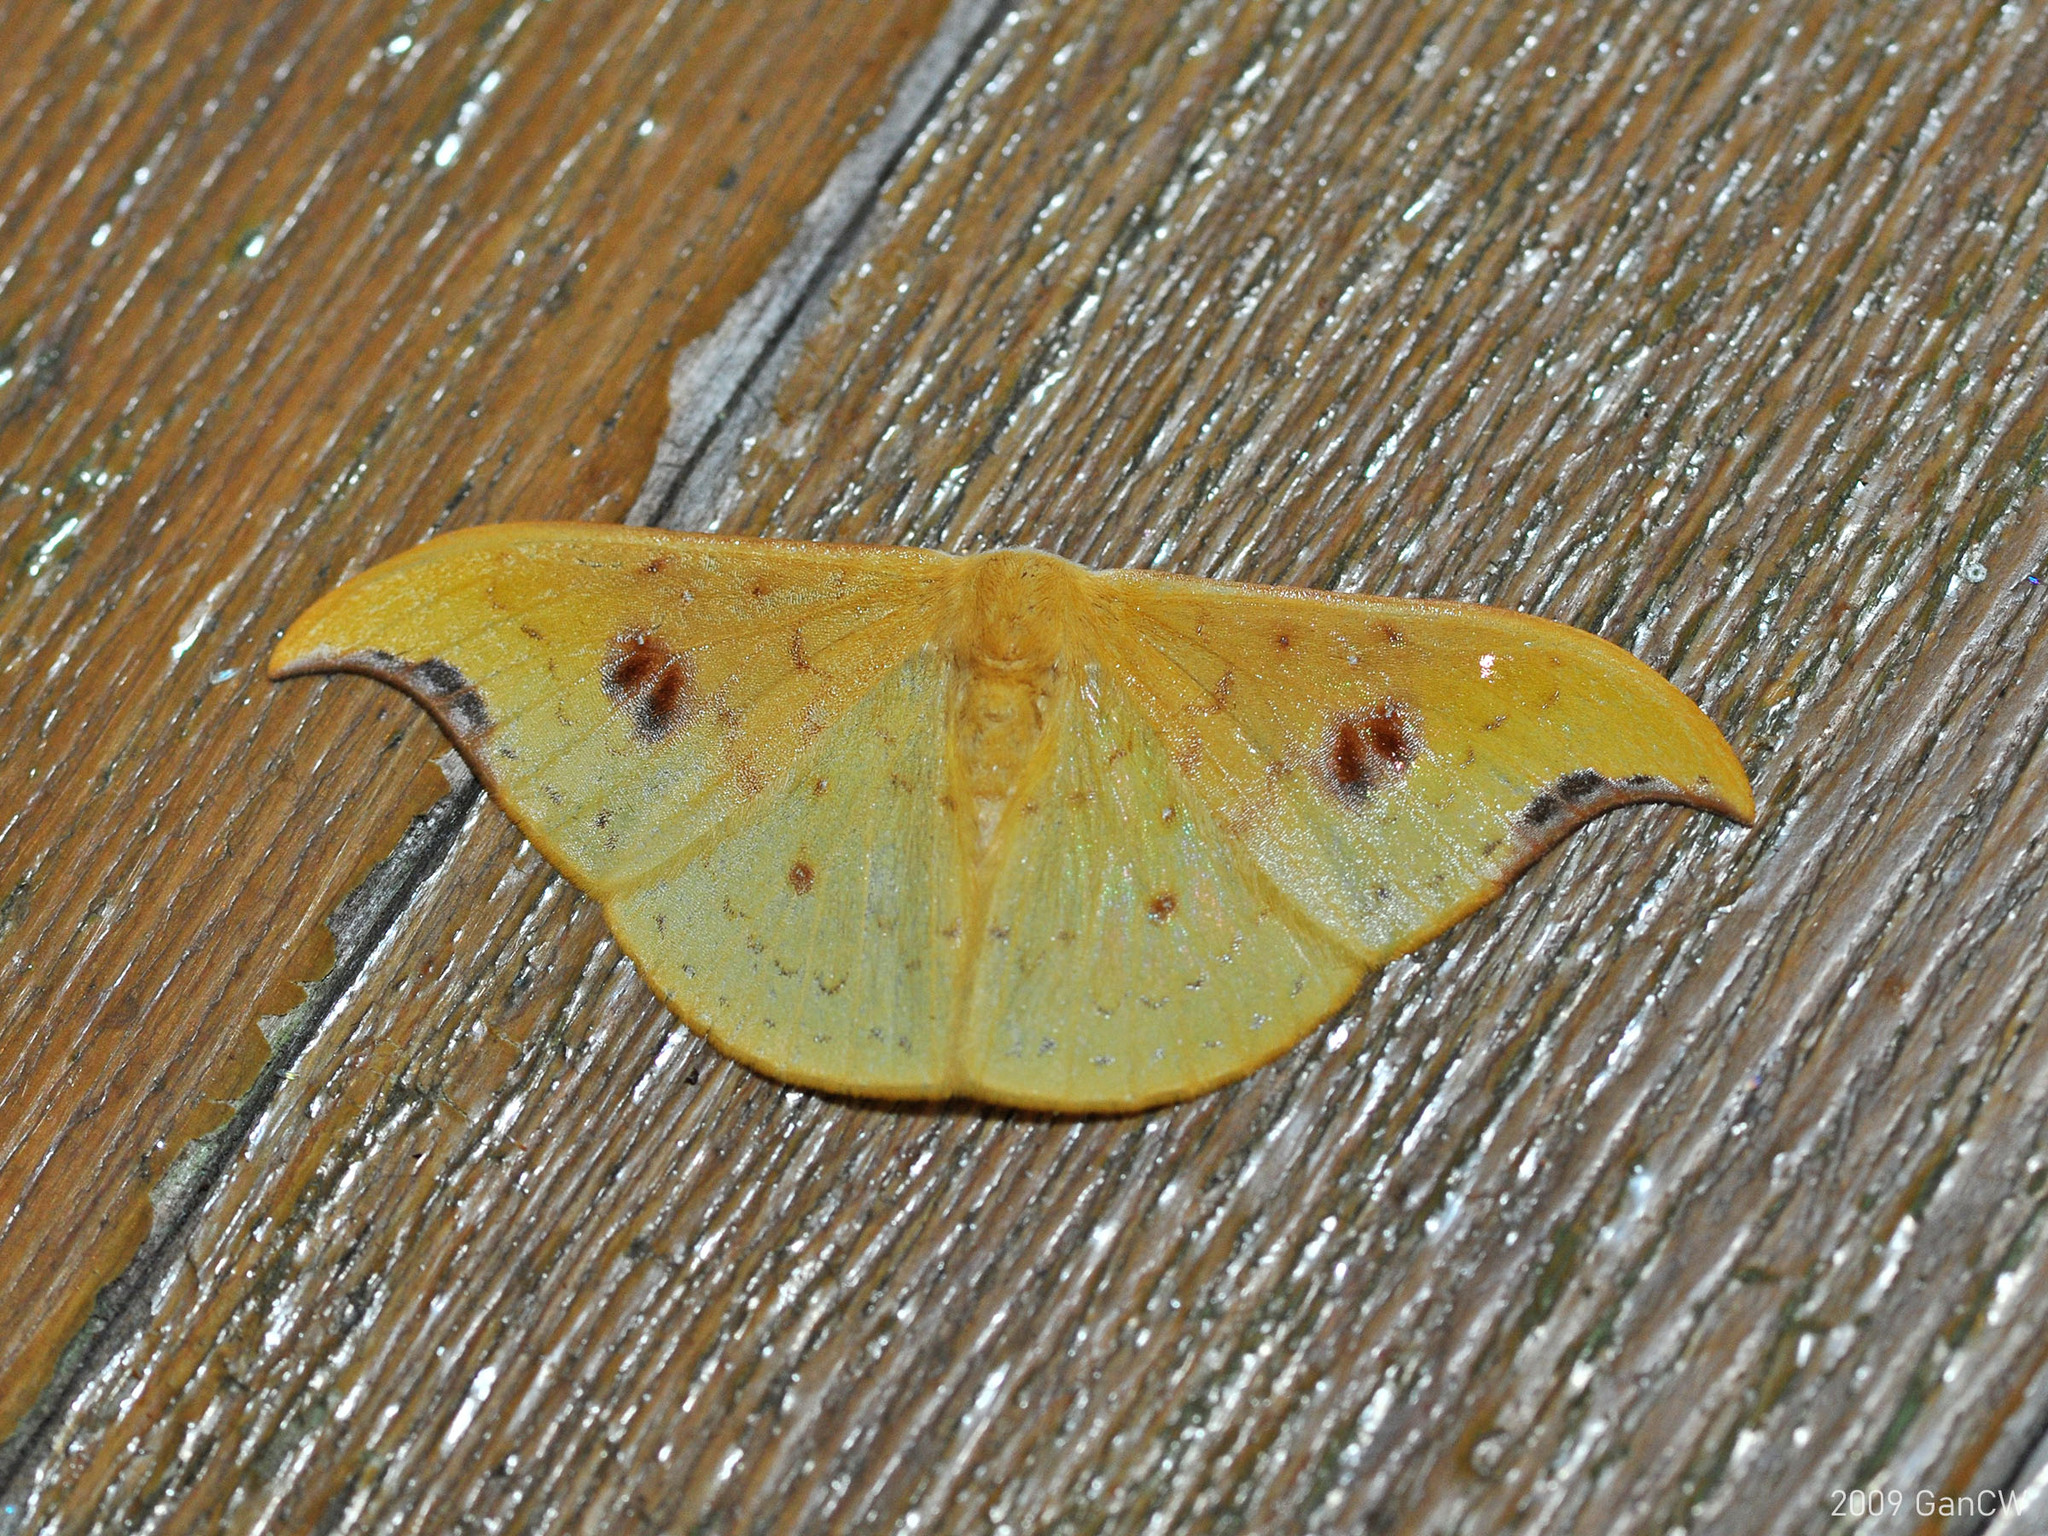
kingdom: Animalia
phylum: Arthropoda
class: Insecta
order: Lepidoptera
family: Drepanidae
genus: Tridrepana
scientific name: Tridrepana fulvata
